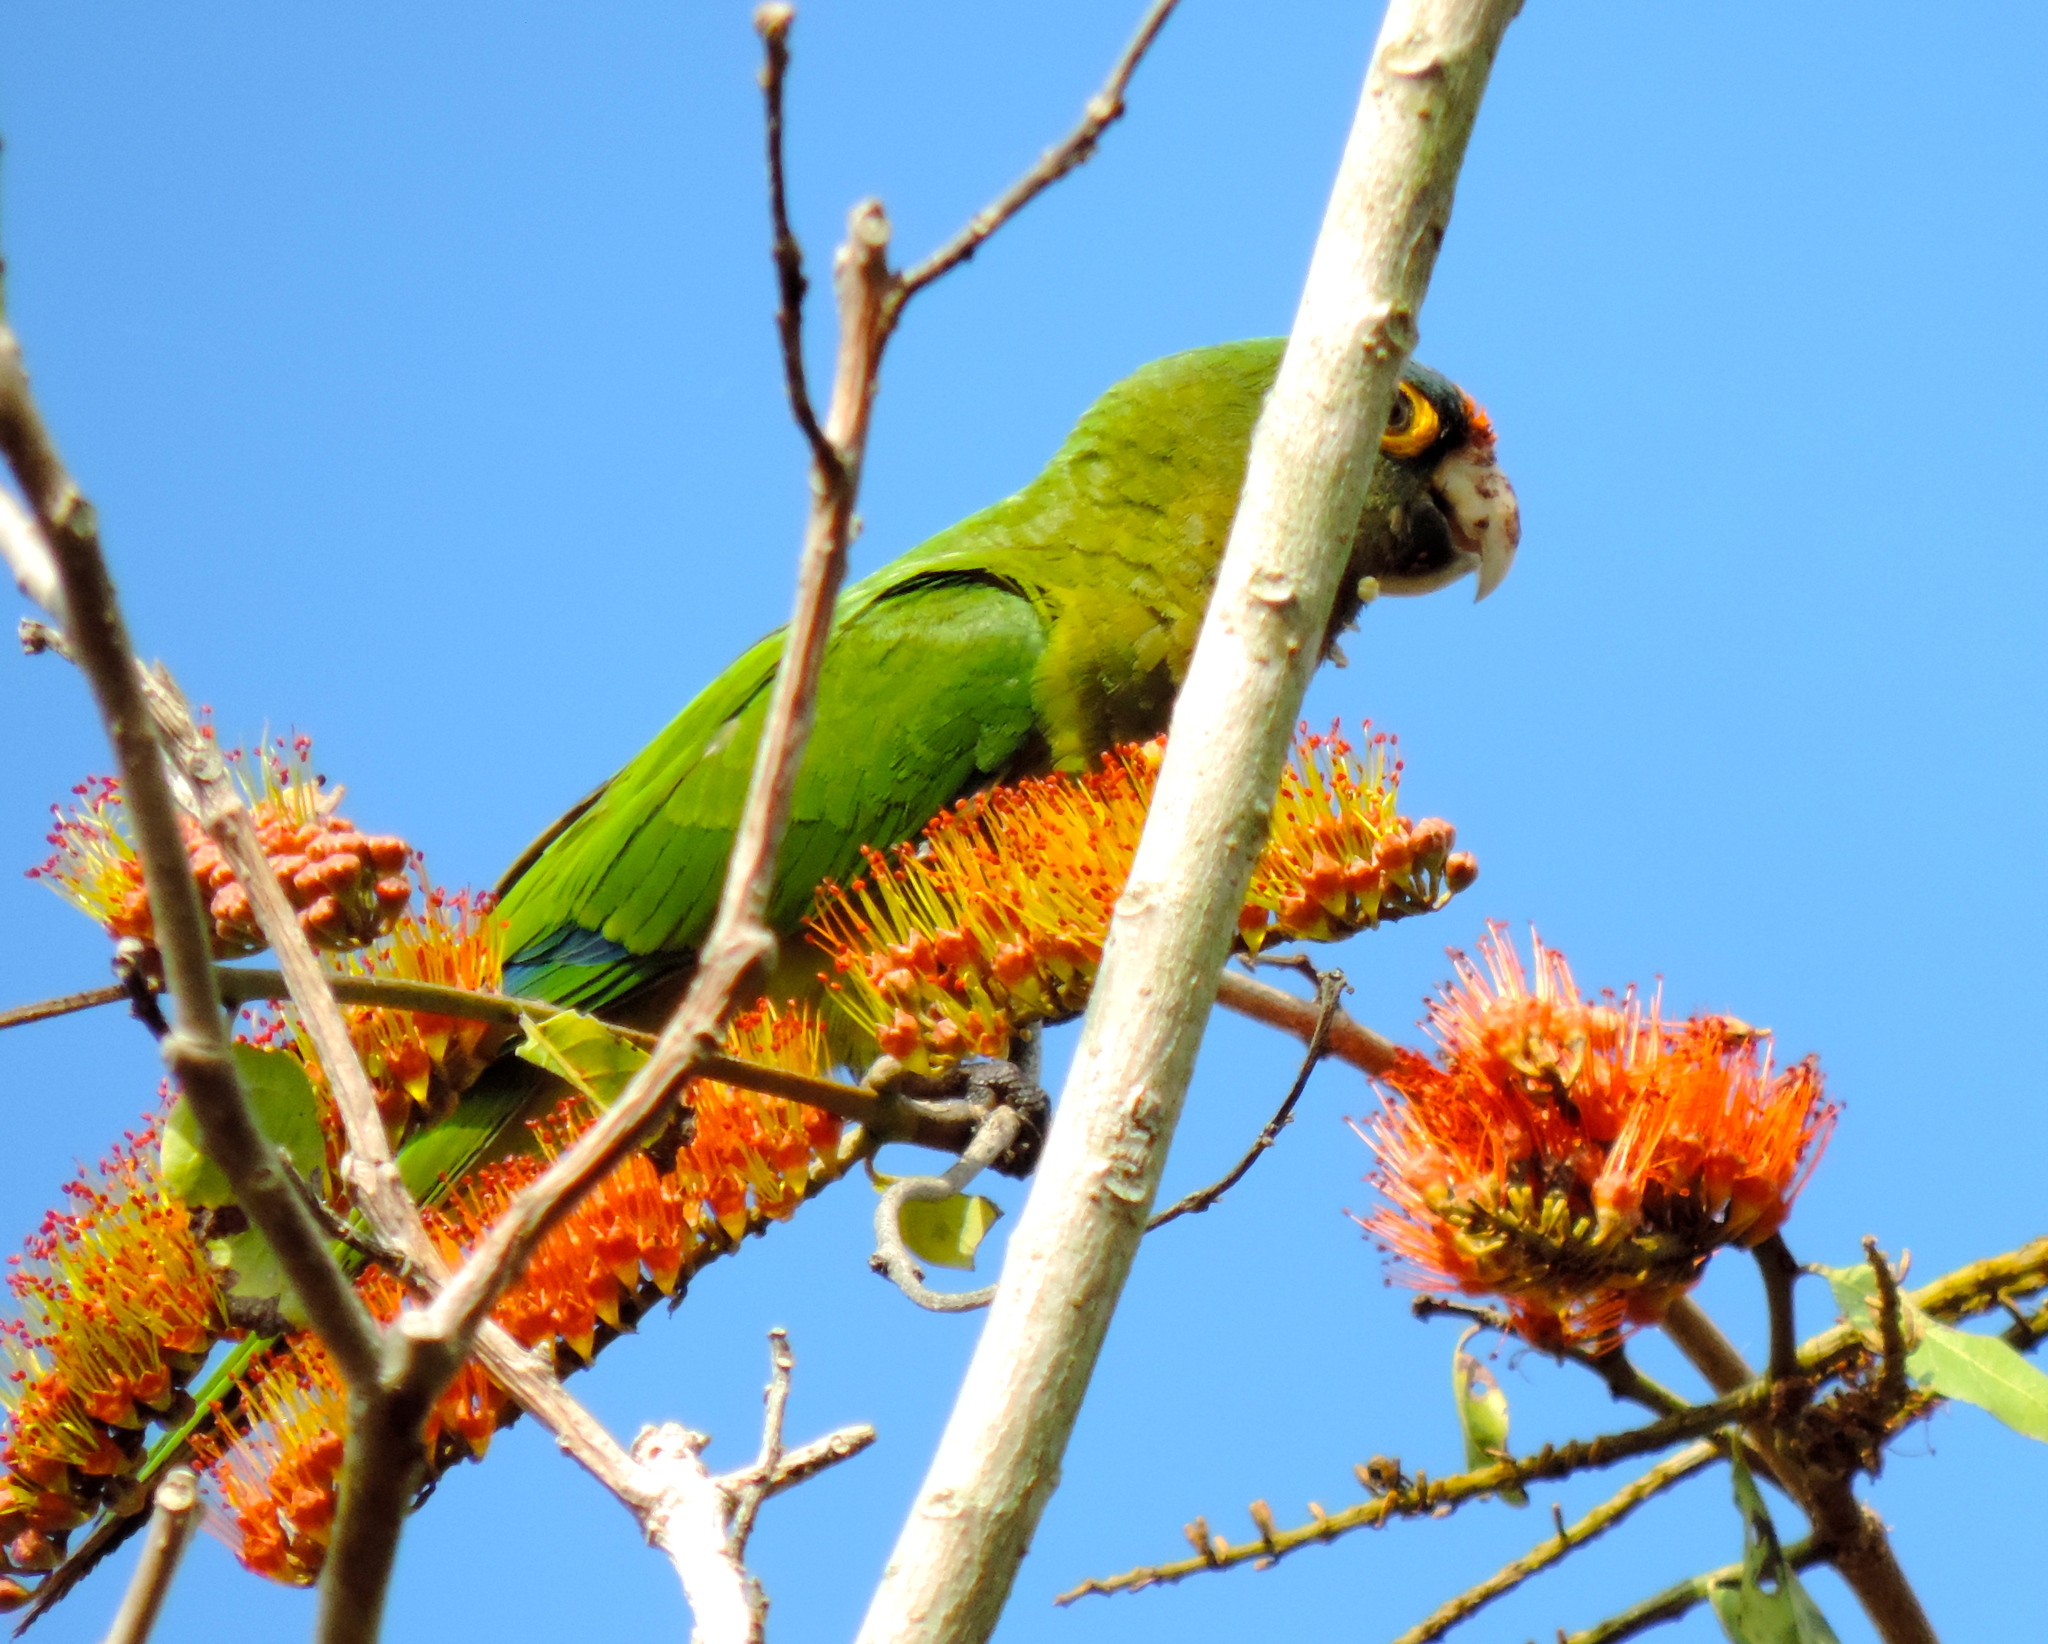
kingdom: Animalia
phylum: Chordata
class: Aves
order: Psittaciformes
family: Psittacidae
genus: Aratinga
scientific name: Aratinga canicularis
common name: Orange-fronted parakeet
